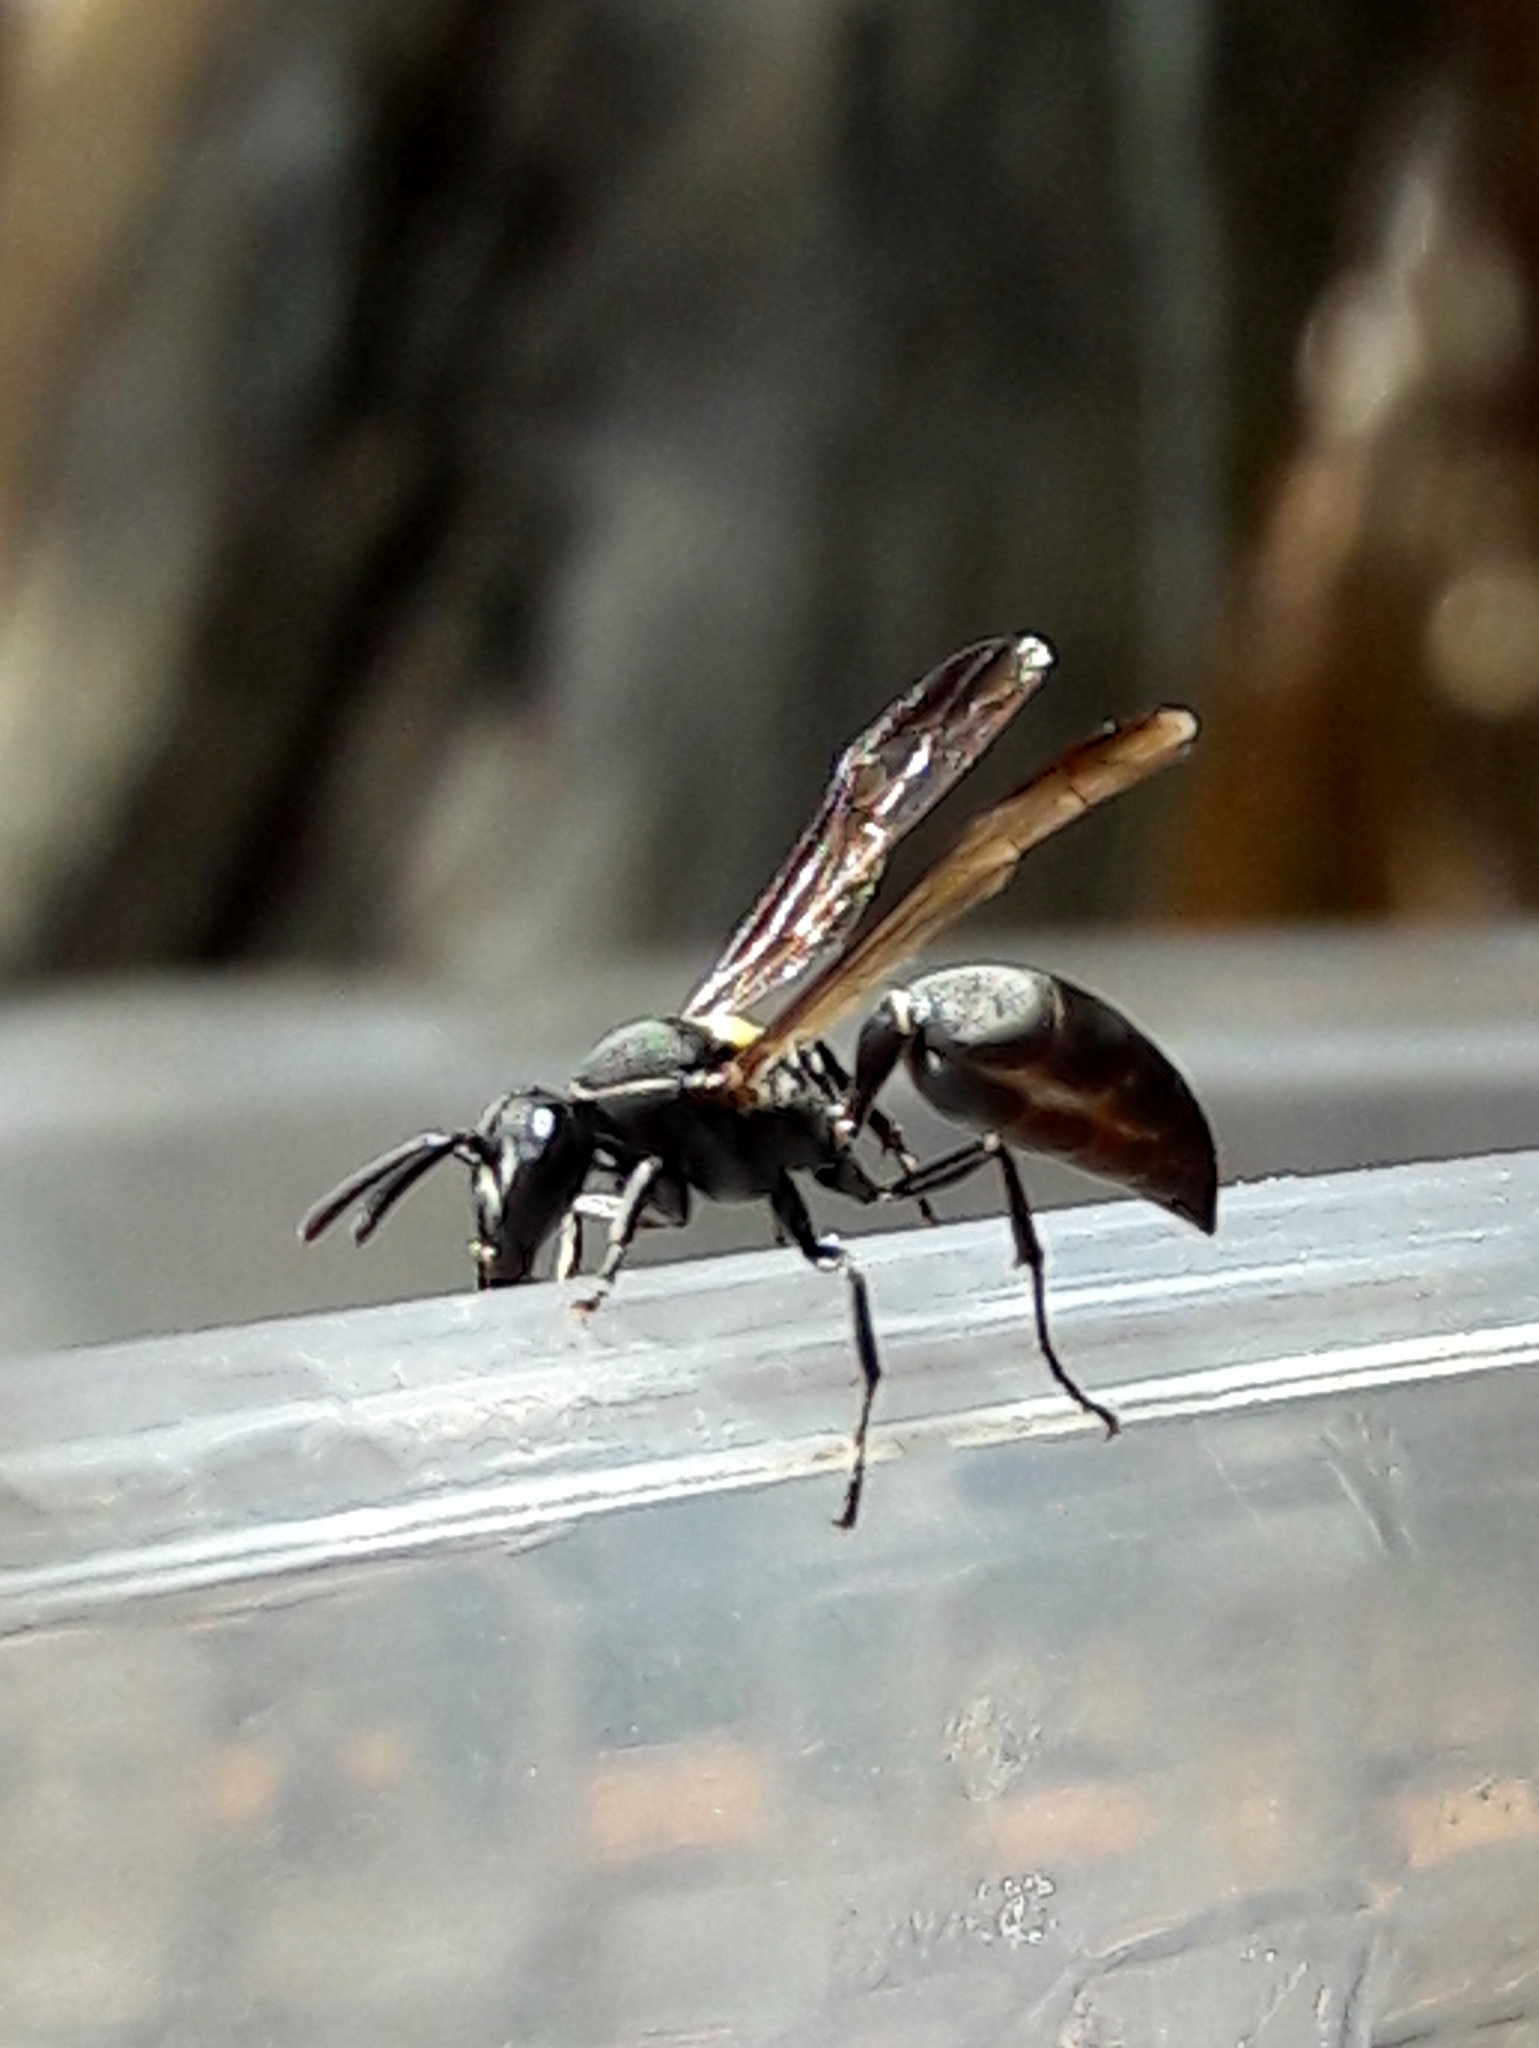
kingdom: Animalia
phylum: Arthropoda
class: Insecta
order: Hymenoptera
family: Eumenidae
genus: Polybia
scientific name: Polybia scutellaris
